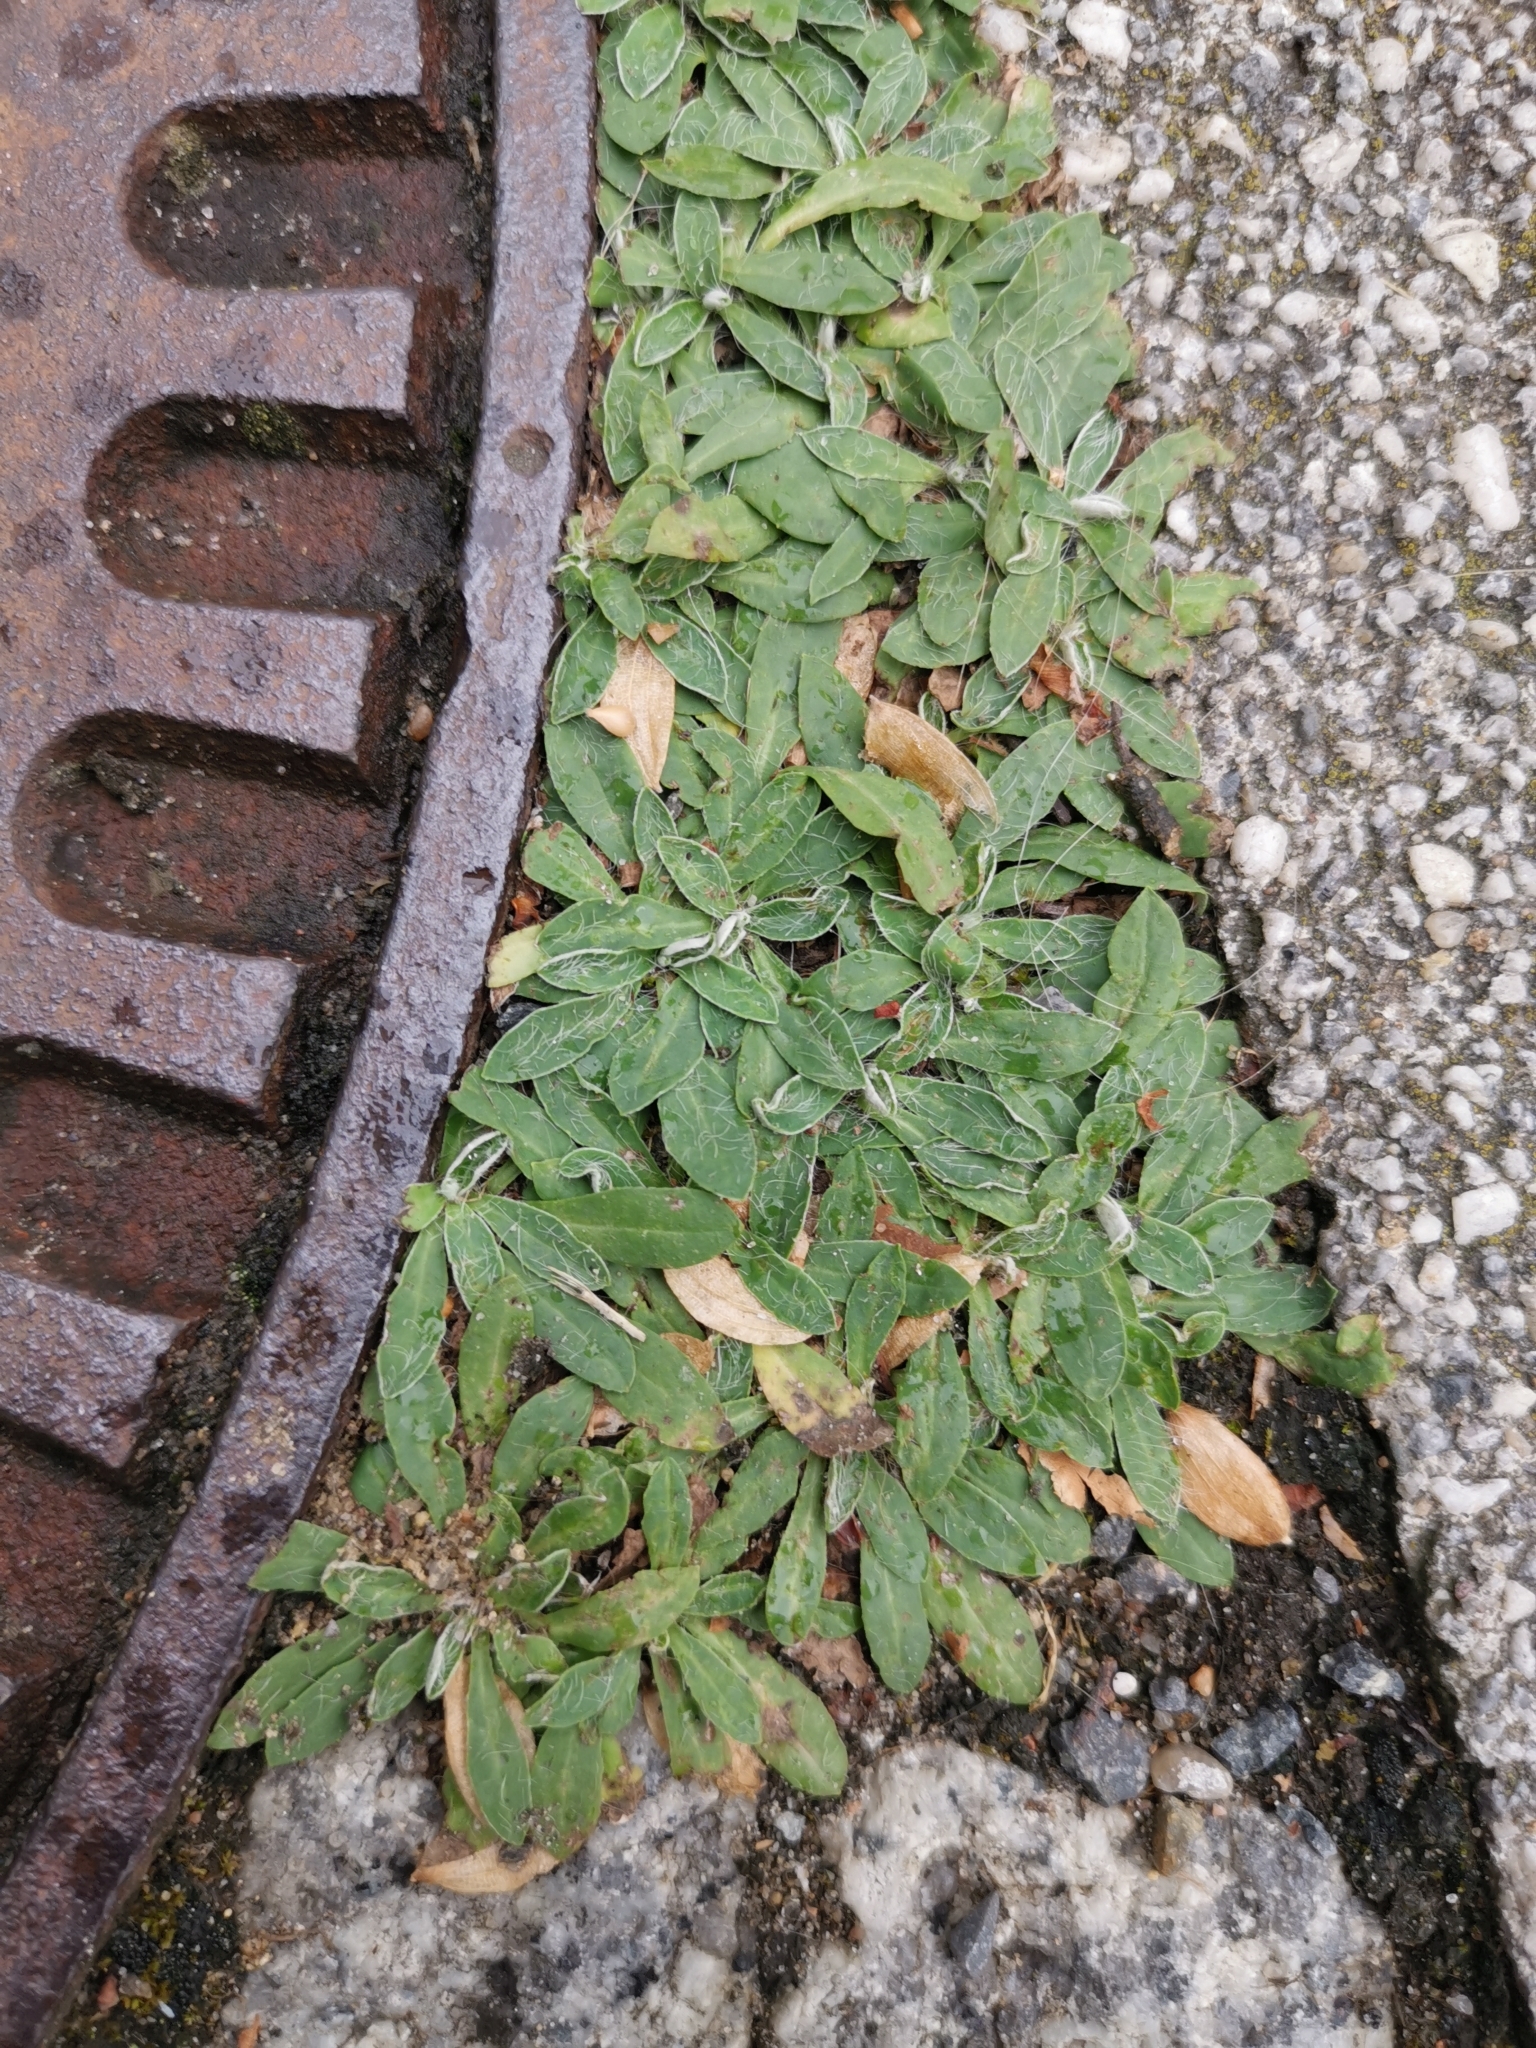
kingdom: Plantae
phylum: Tracheophyta
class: Magnoliopsida
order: Asterales
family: Asteraceae
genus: Pilosella
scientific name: Pilosella officinarum
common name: Mouse-ear hawkweed
